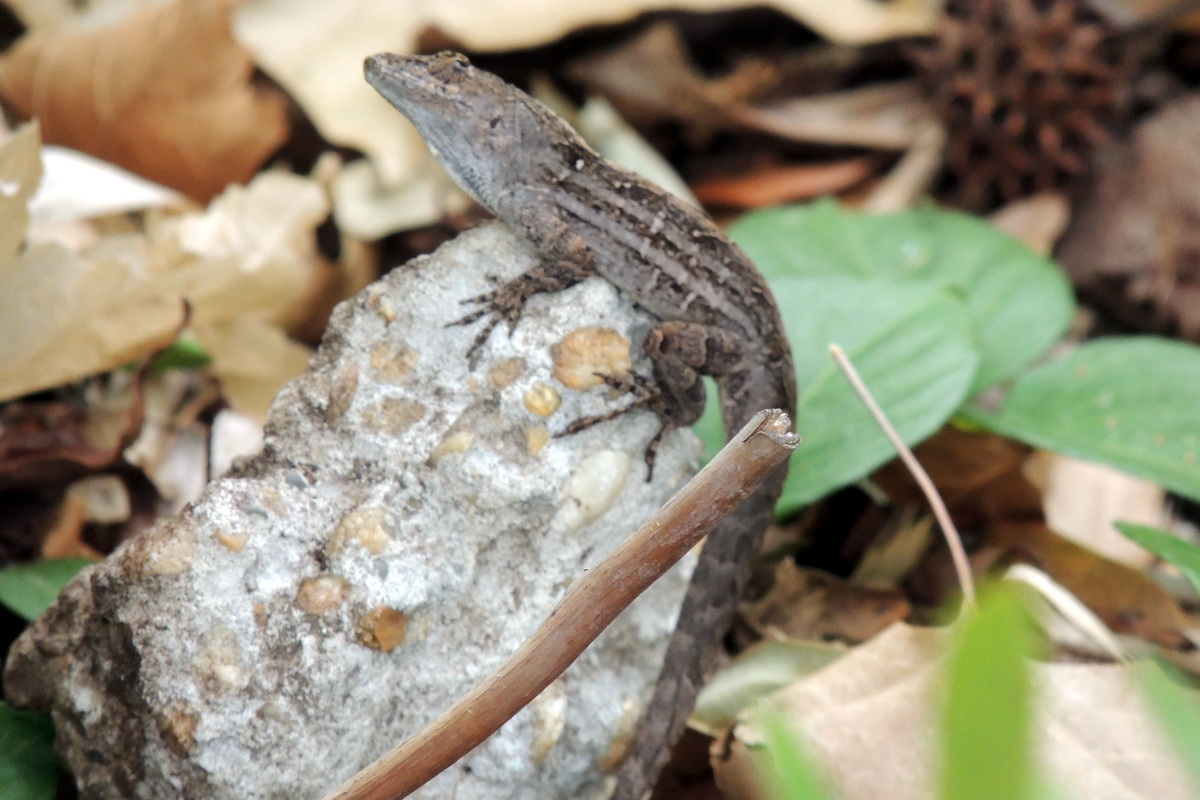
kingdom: Animalia
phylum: Chordata
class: Squamata
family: Dactyloidae
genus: Anolis
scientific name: Anolis sagrei
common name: Brown anole
